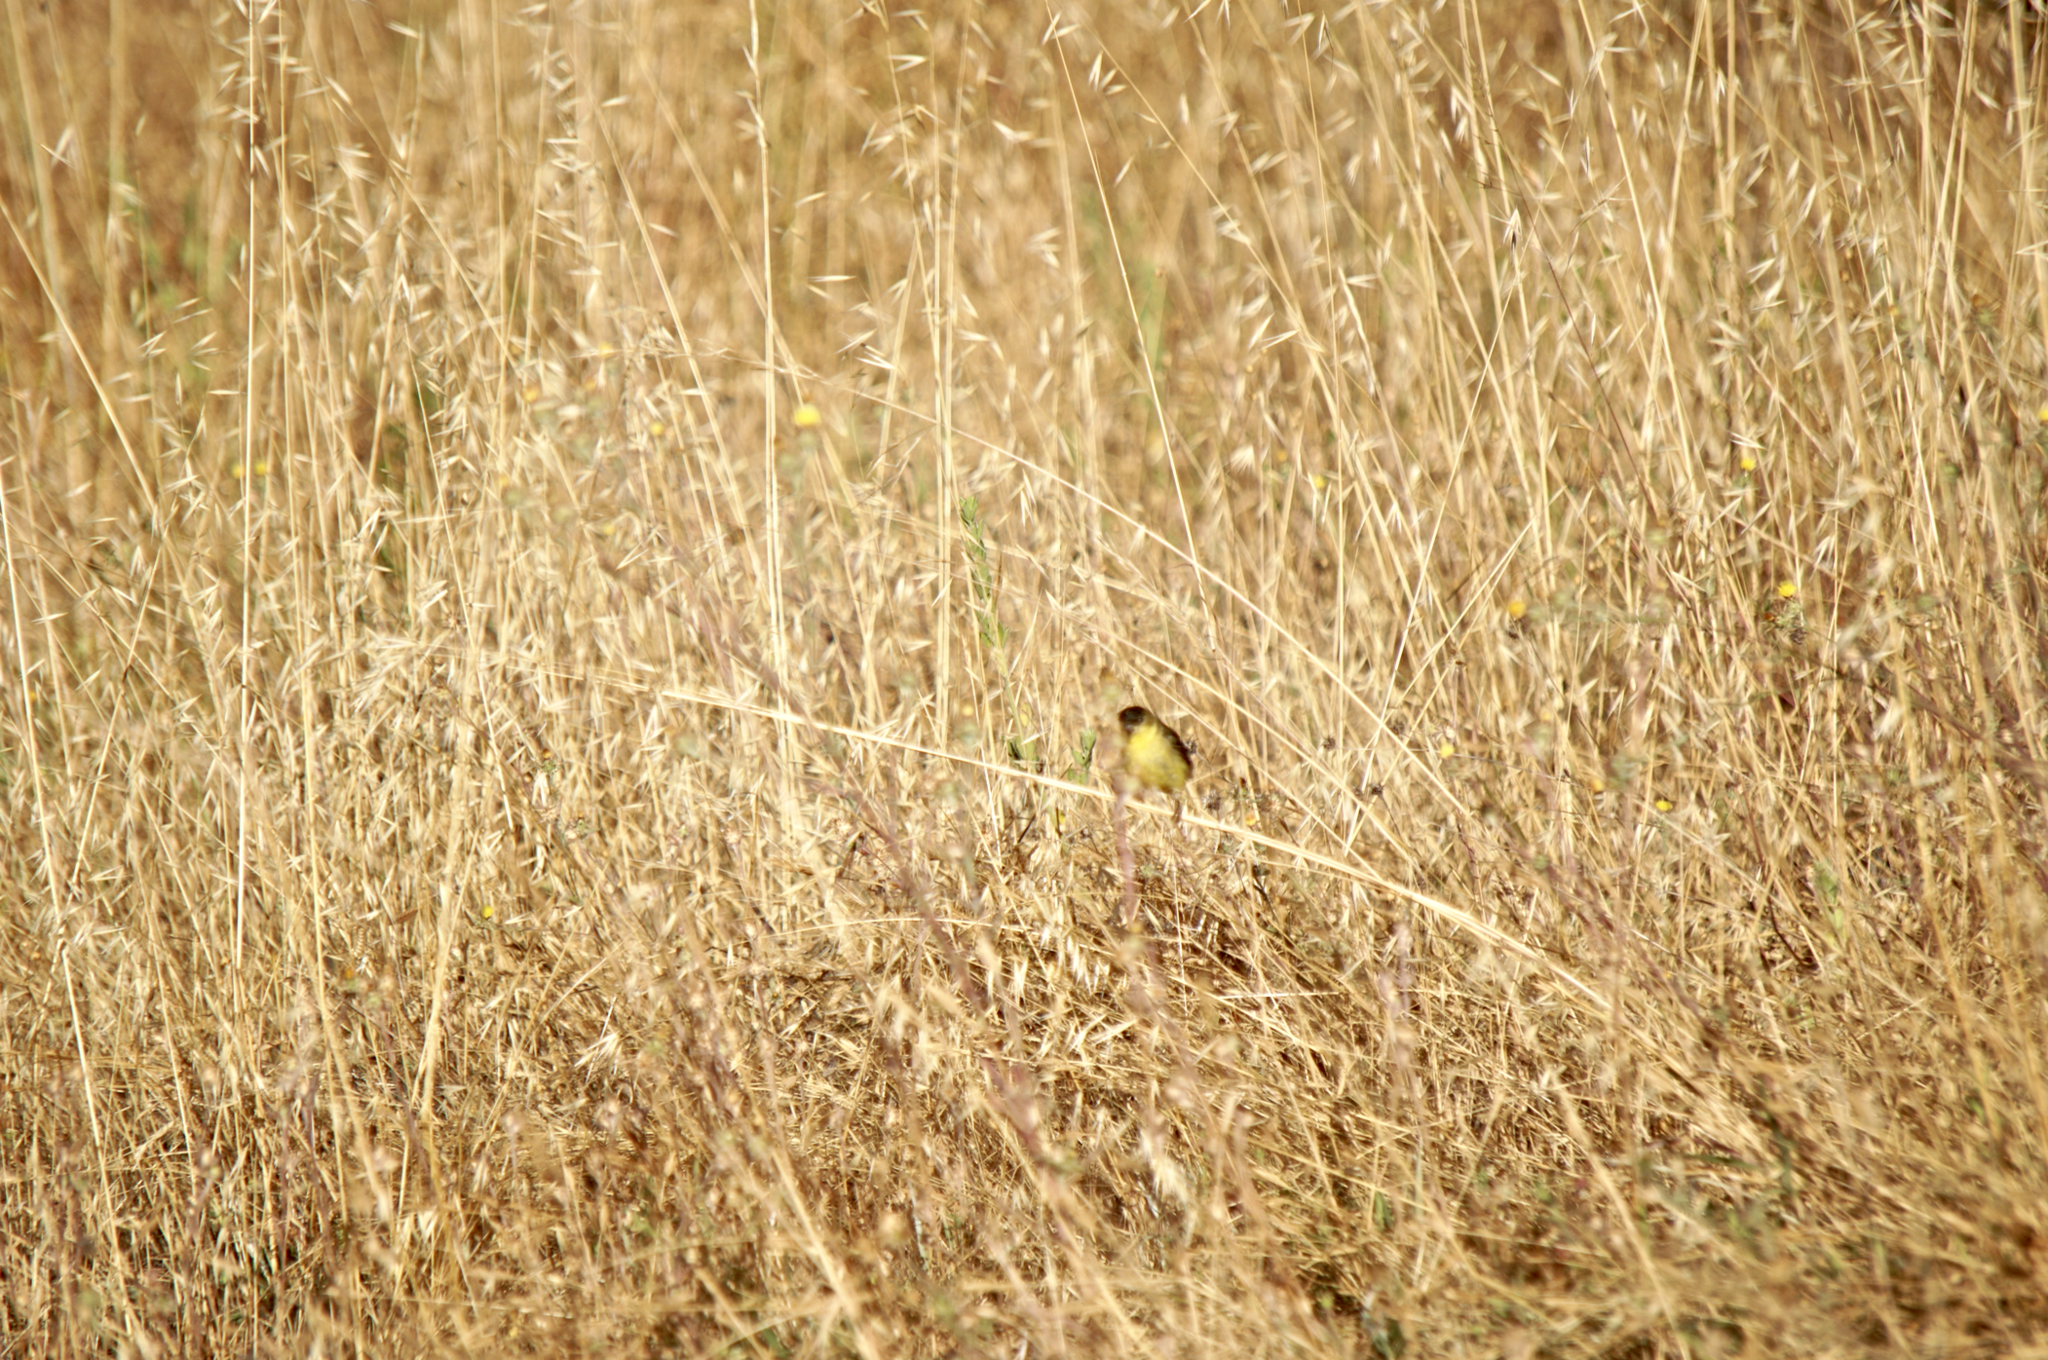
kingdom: Animalia
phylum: Chordata
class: Aves
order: Passeriformes
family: Fringillidae
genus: Spinus
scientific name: Spinus psaltria
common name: Lesser goldfinch
